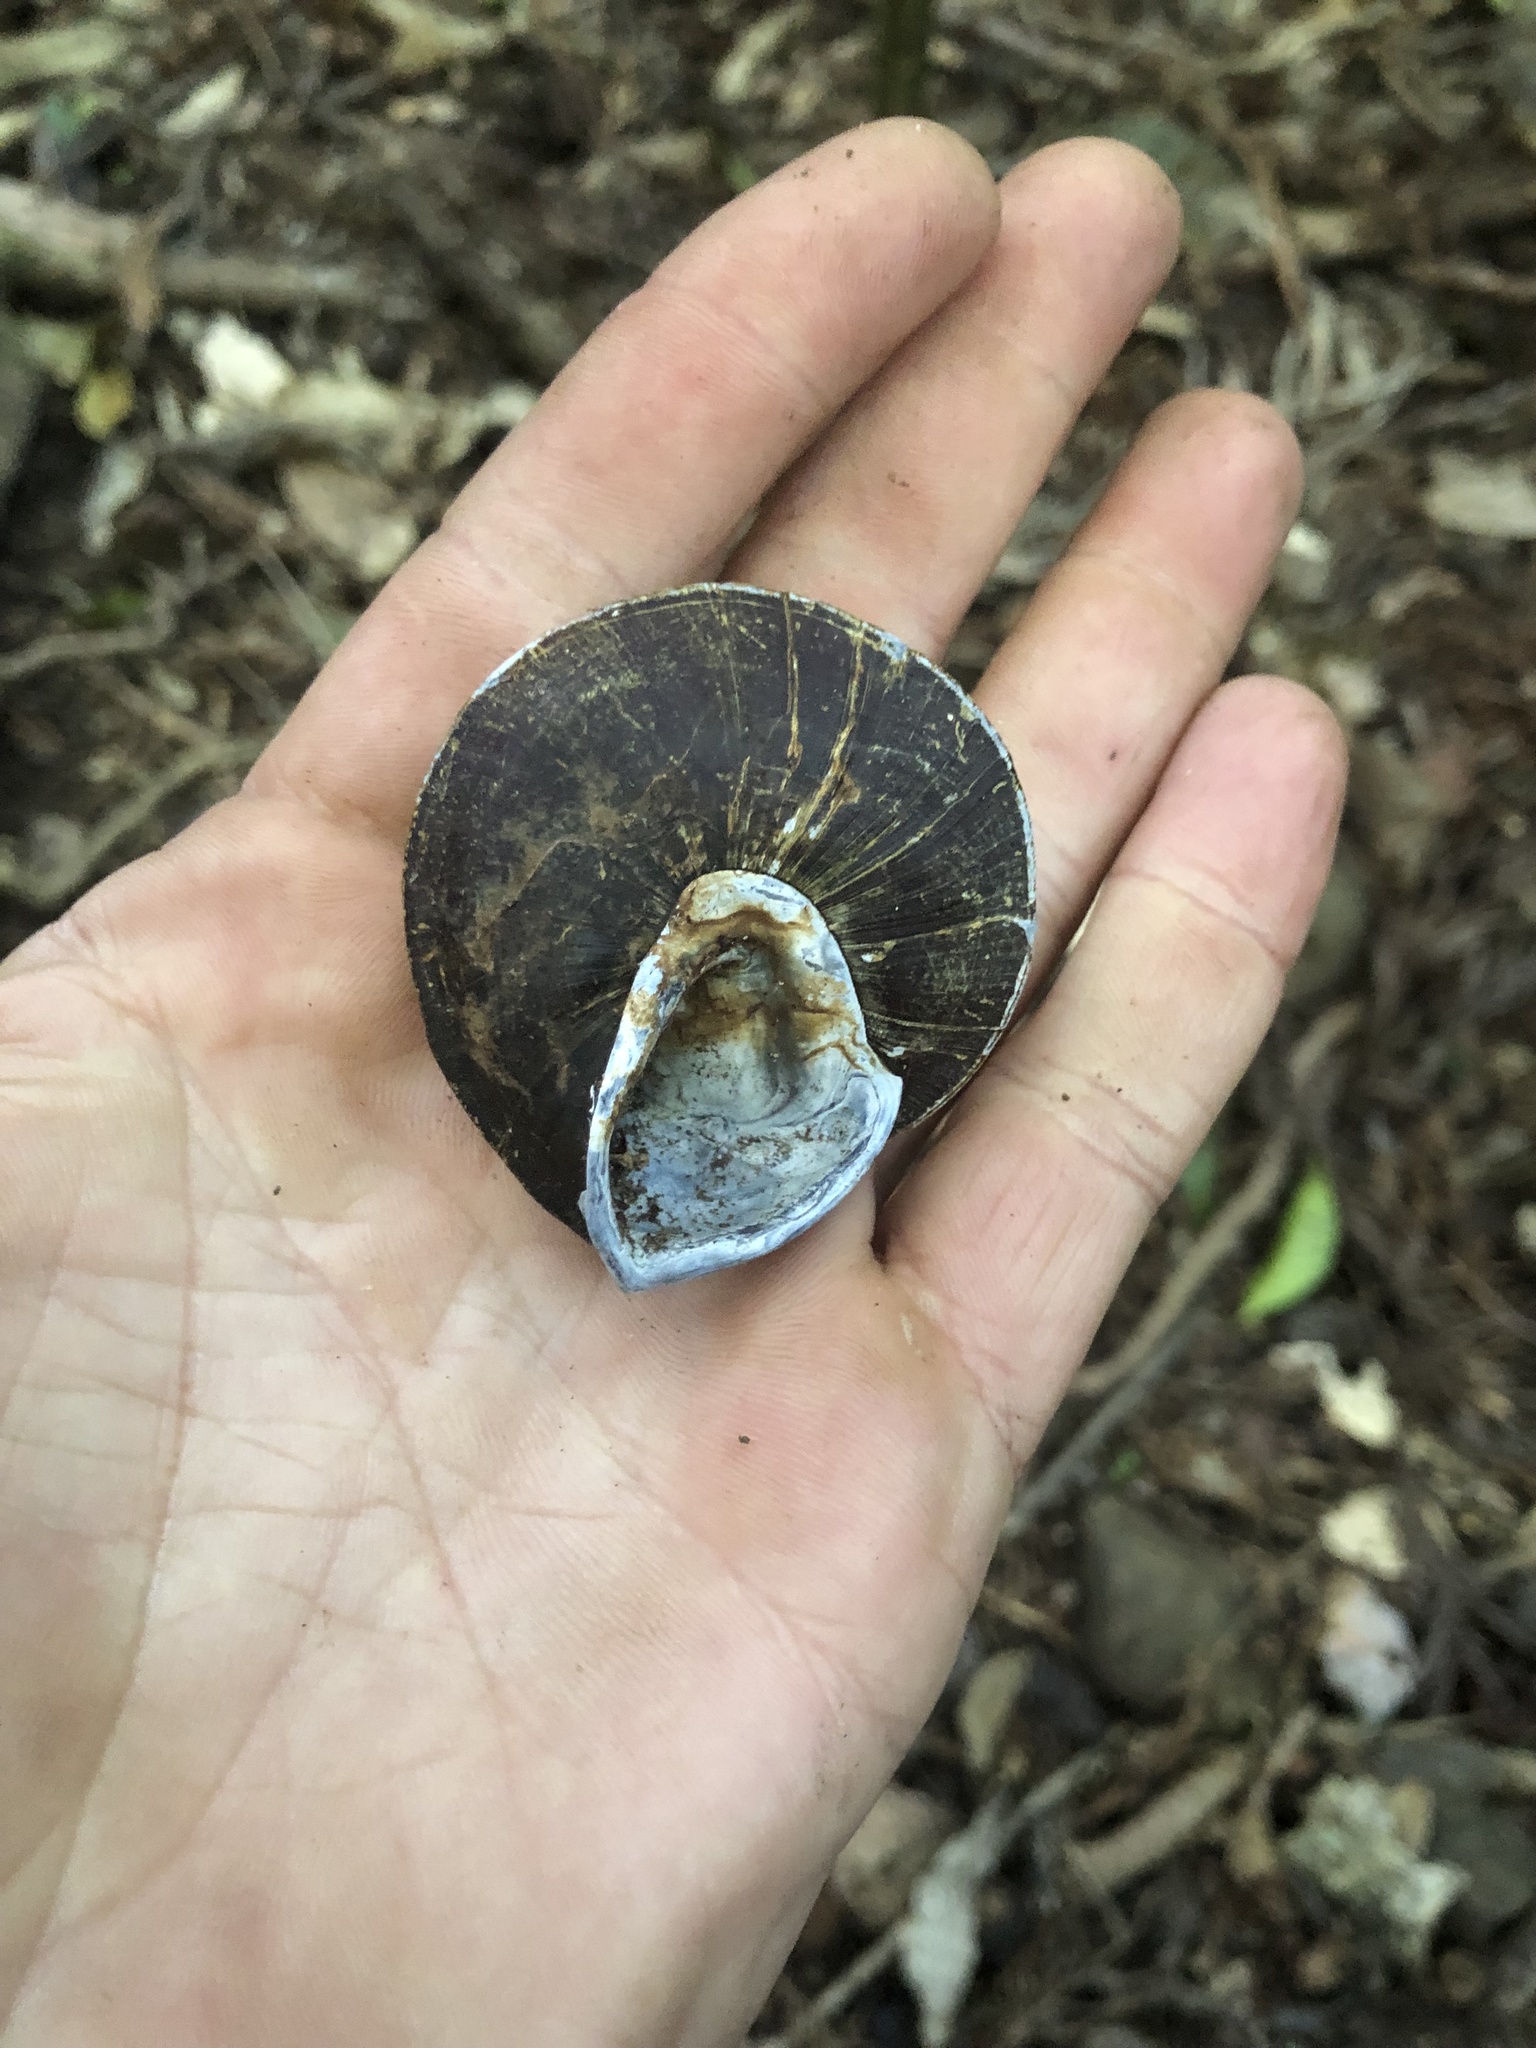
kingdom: Animalia
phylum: Mollusca
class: Gastropoda
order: Stylommatophora
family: Camaenidae
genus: Thersites
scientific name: Thersites richmondiana
